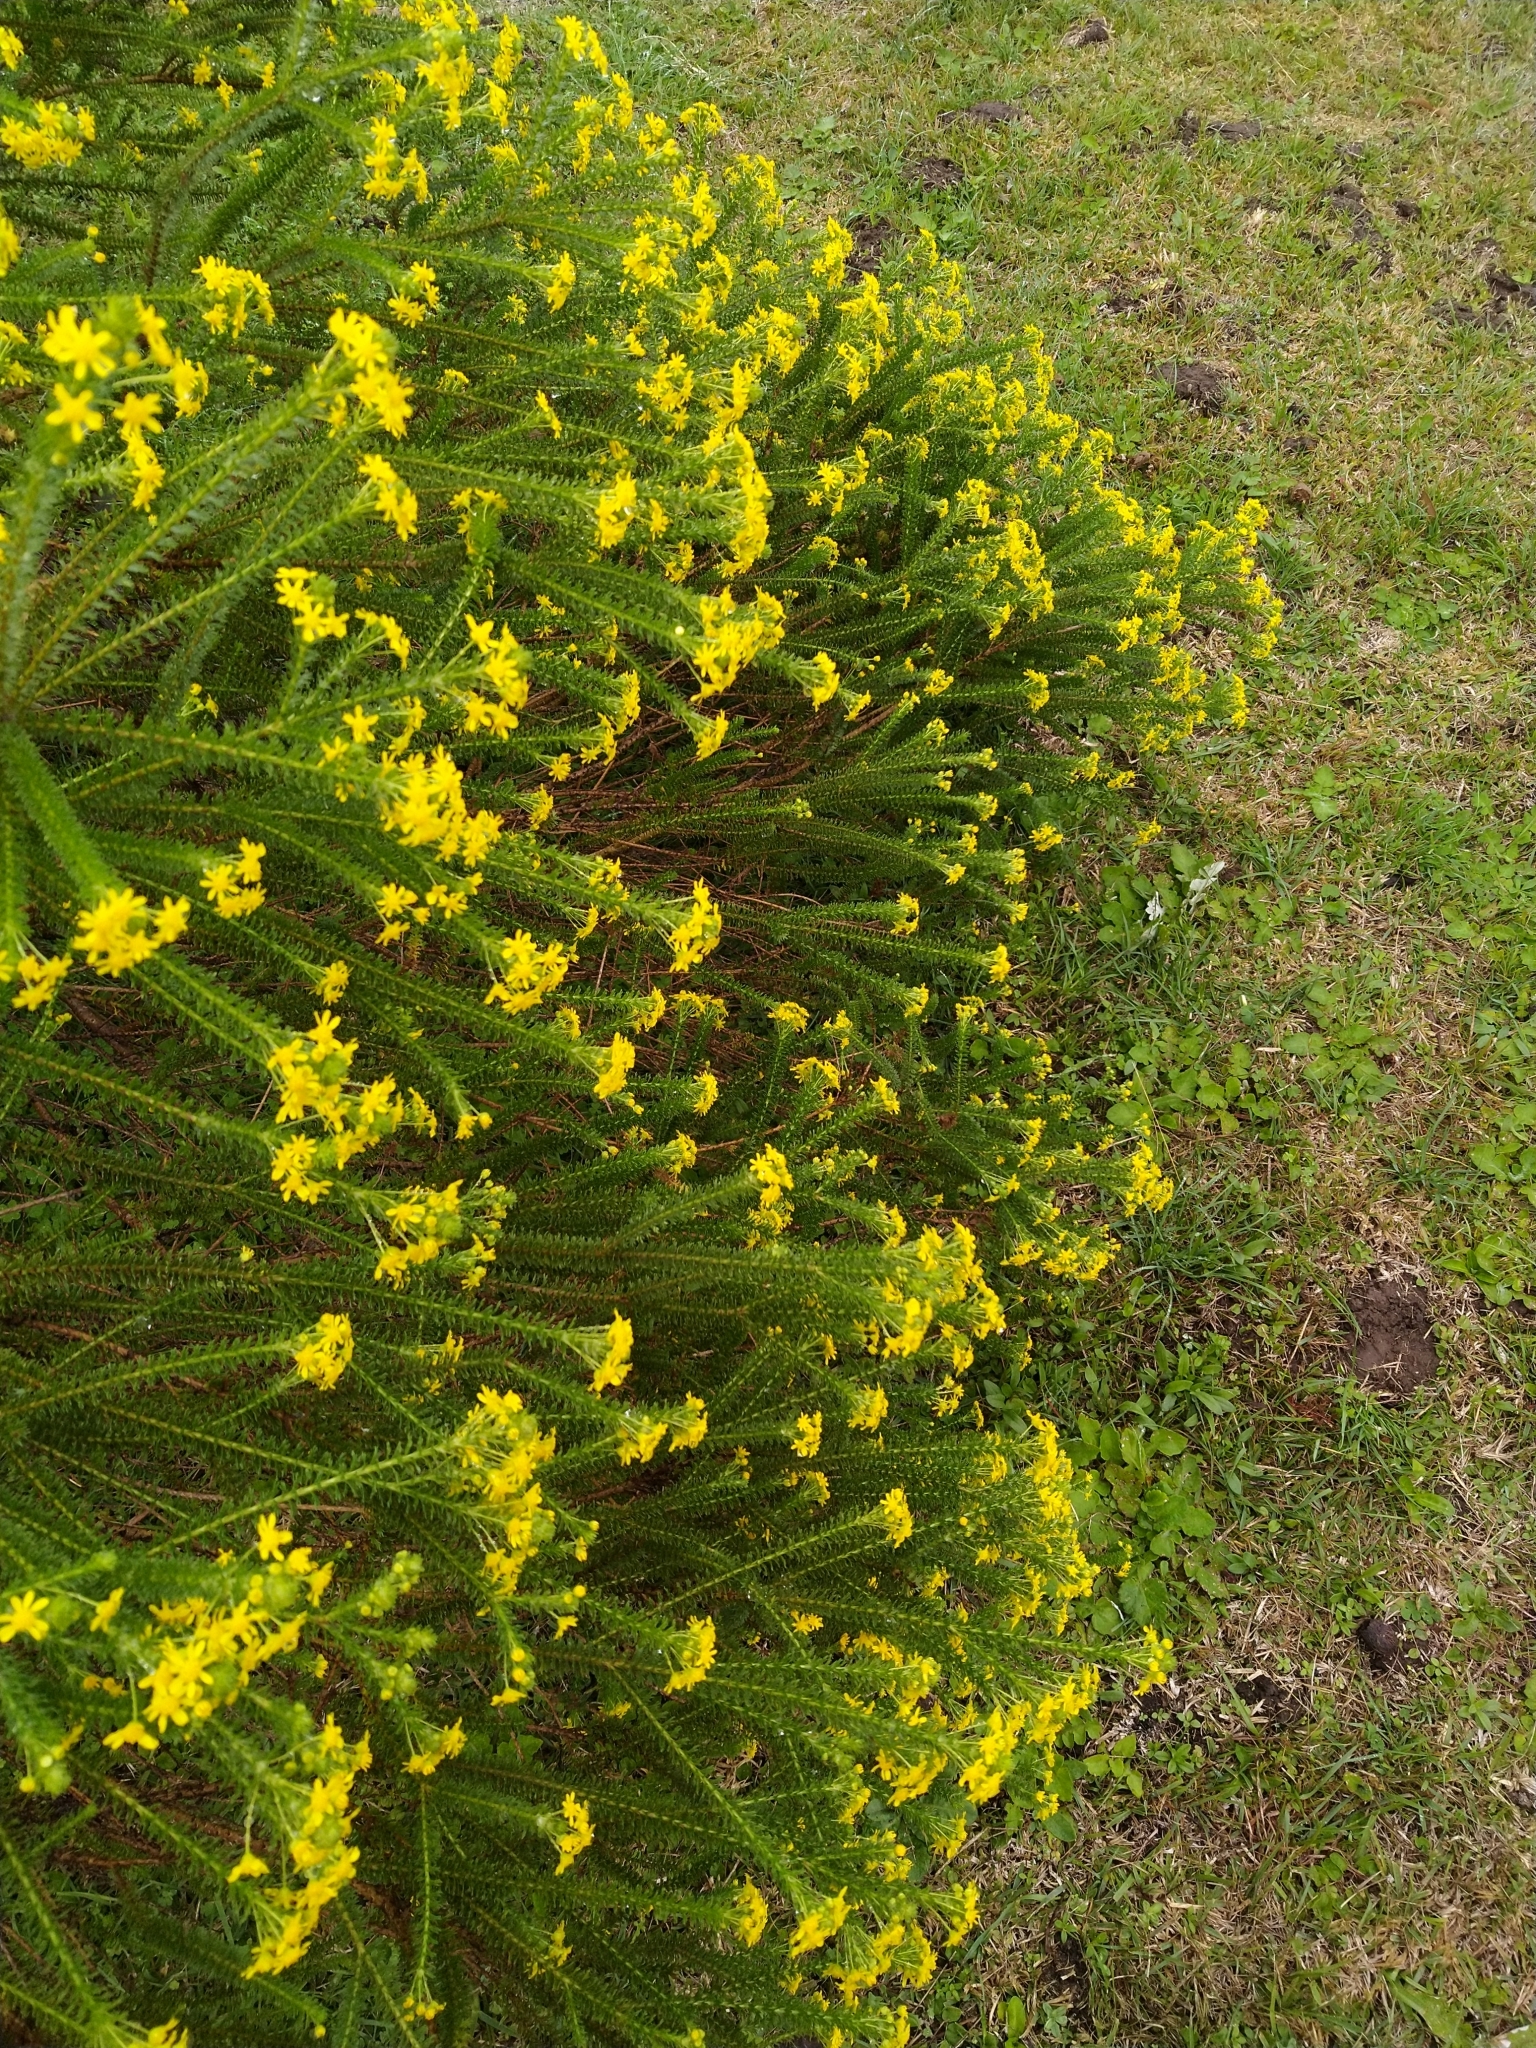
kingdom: Plantae
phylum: Tracheophyta
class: Magnoliopsida
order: Asterales
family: Asteraceae
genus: Euryops
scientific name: Euryops virgineus
